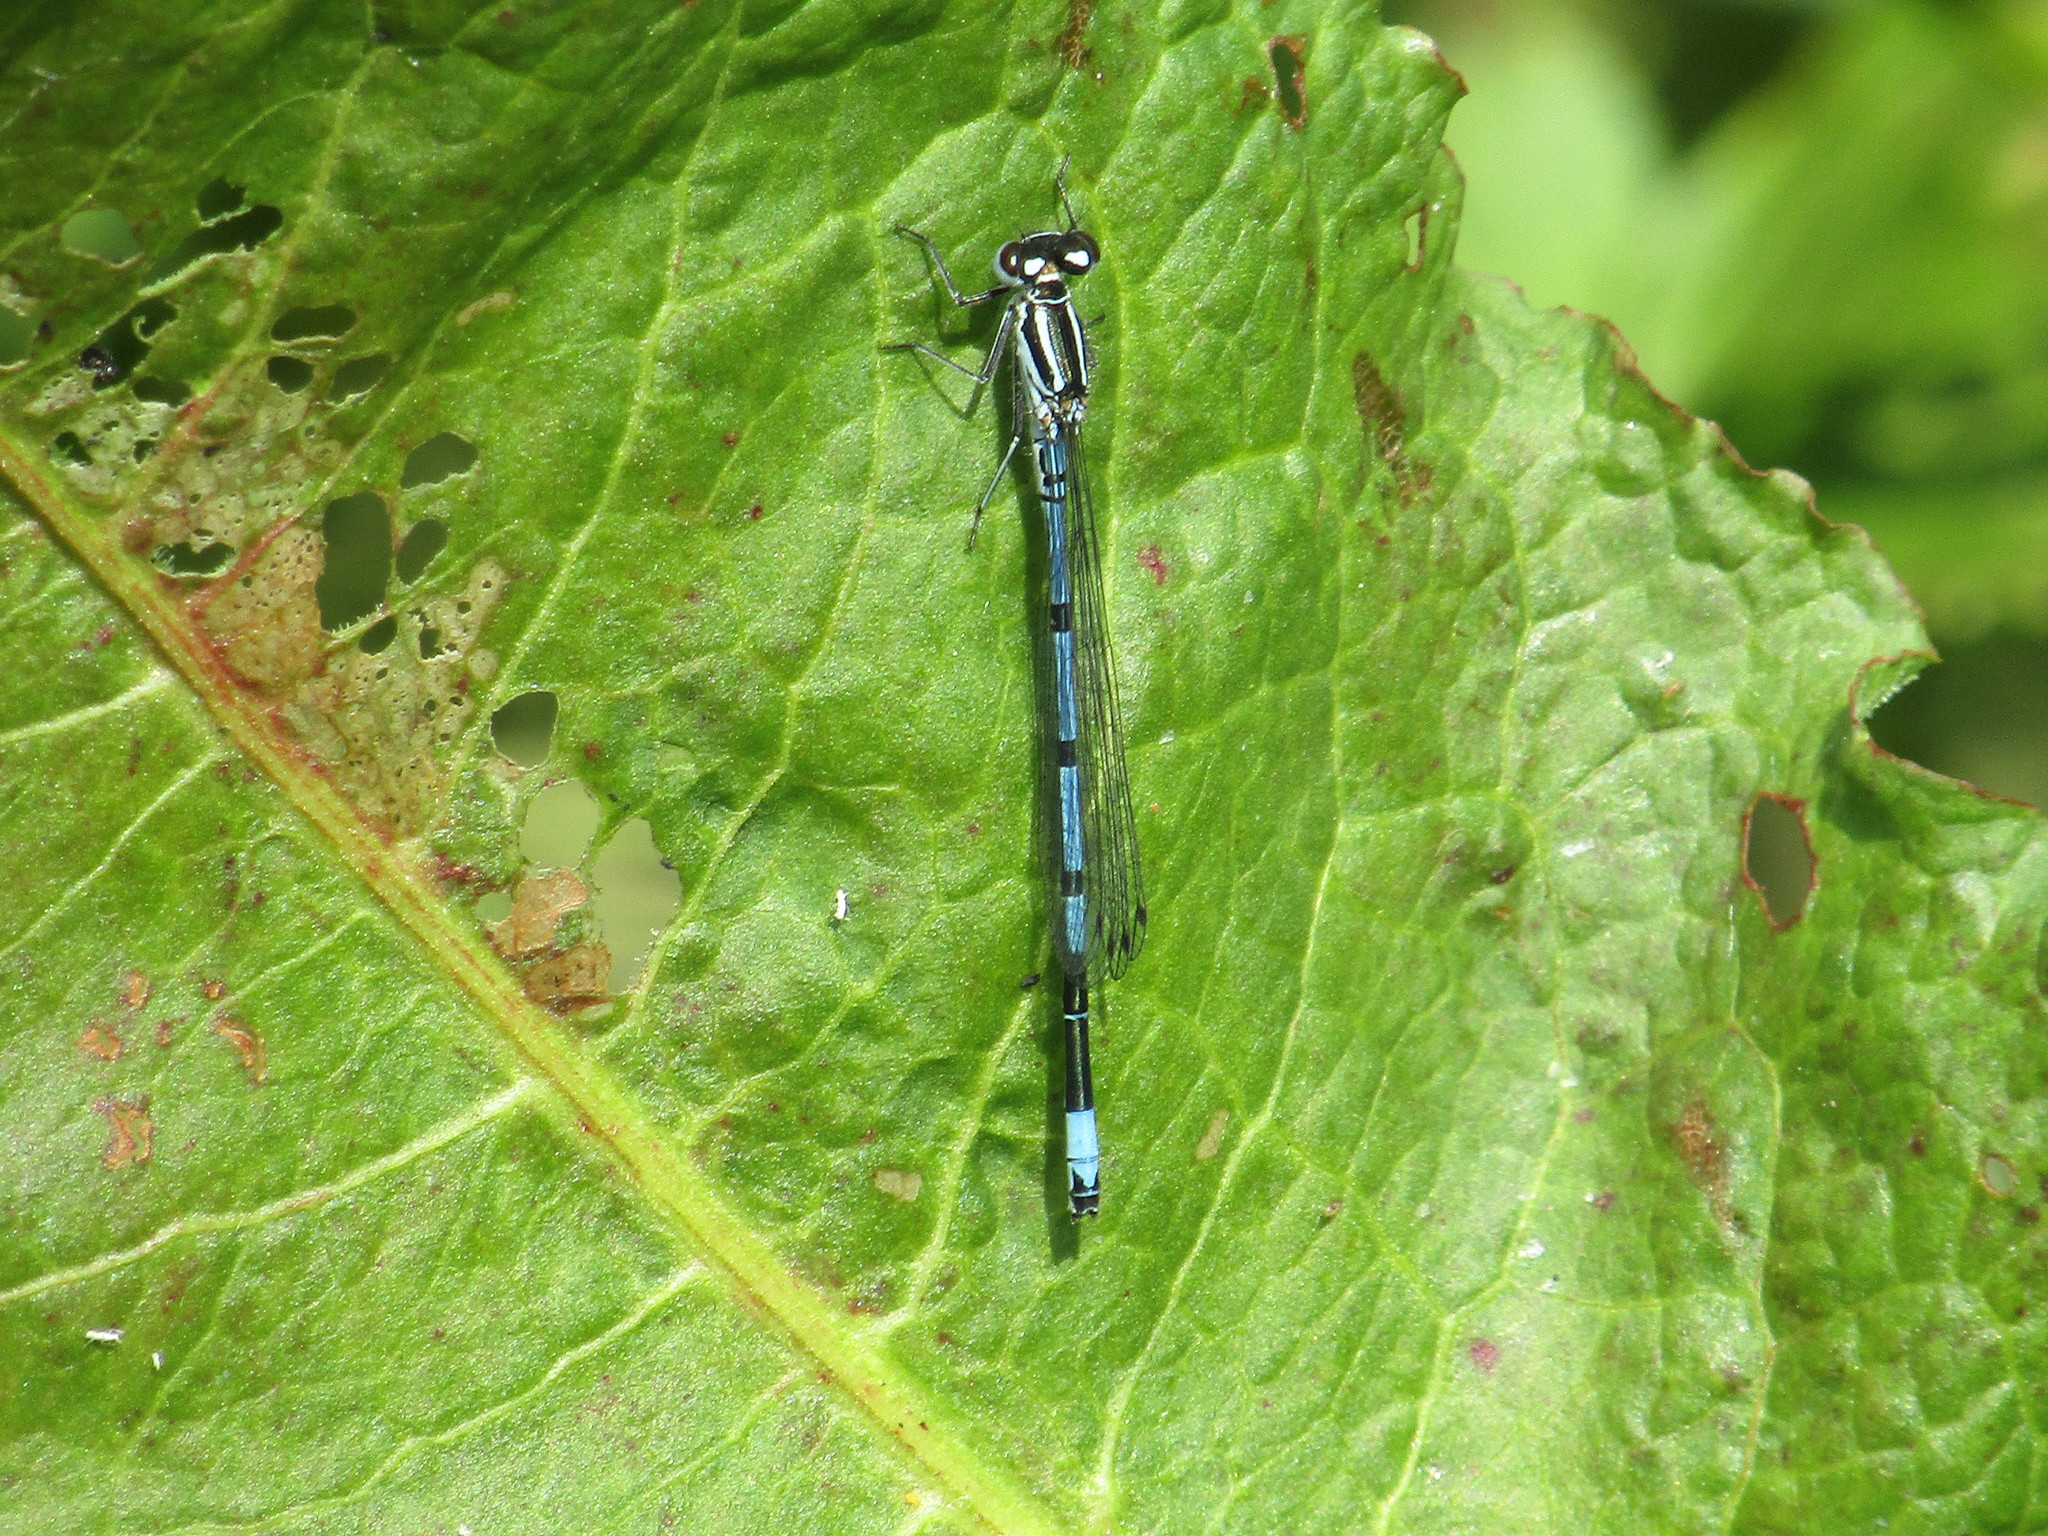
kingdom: Animalia
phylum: Arthropoda
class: Insecta
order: Odonata
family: Coenagrionidae
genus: Coenagrion
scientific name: Coenagrion puella
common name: Azure damselfly
